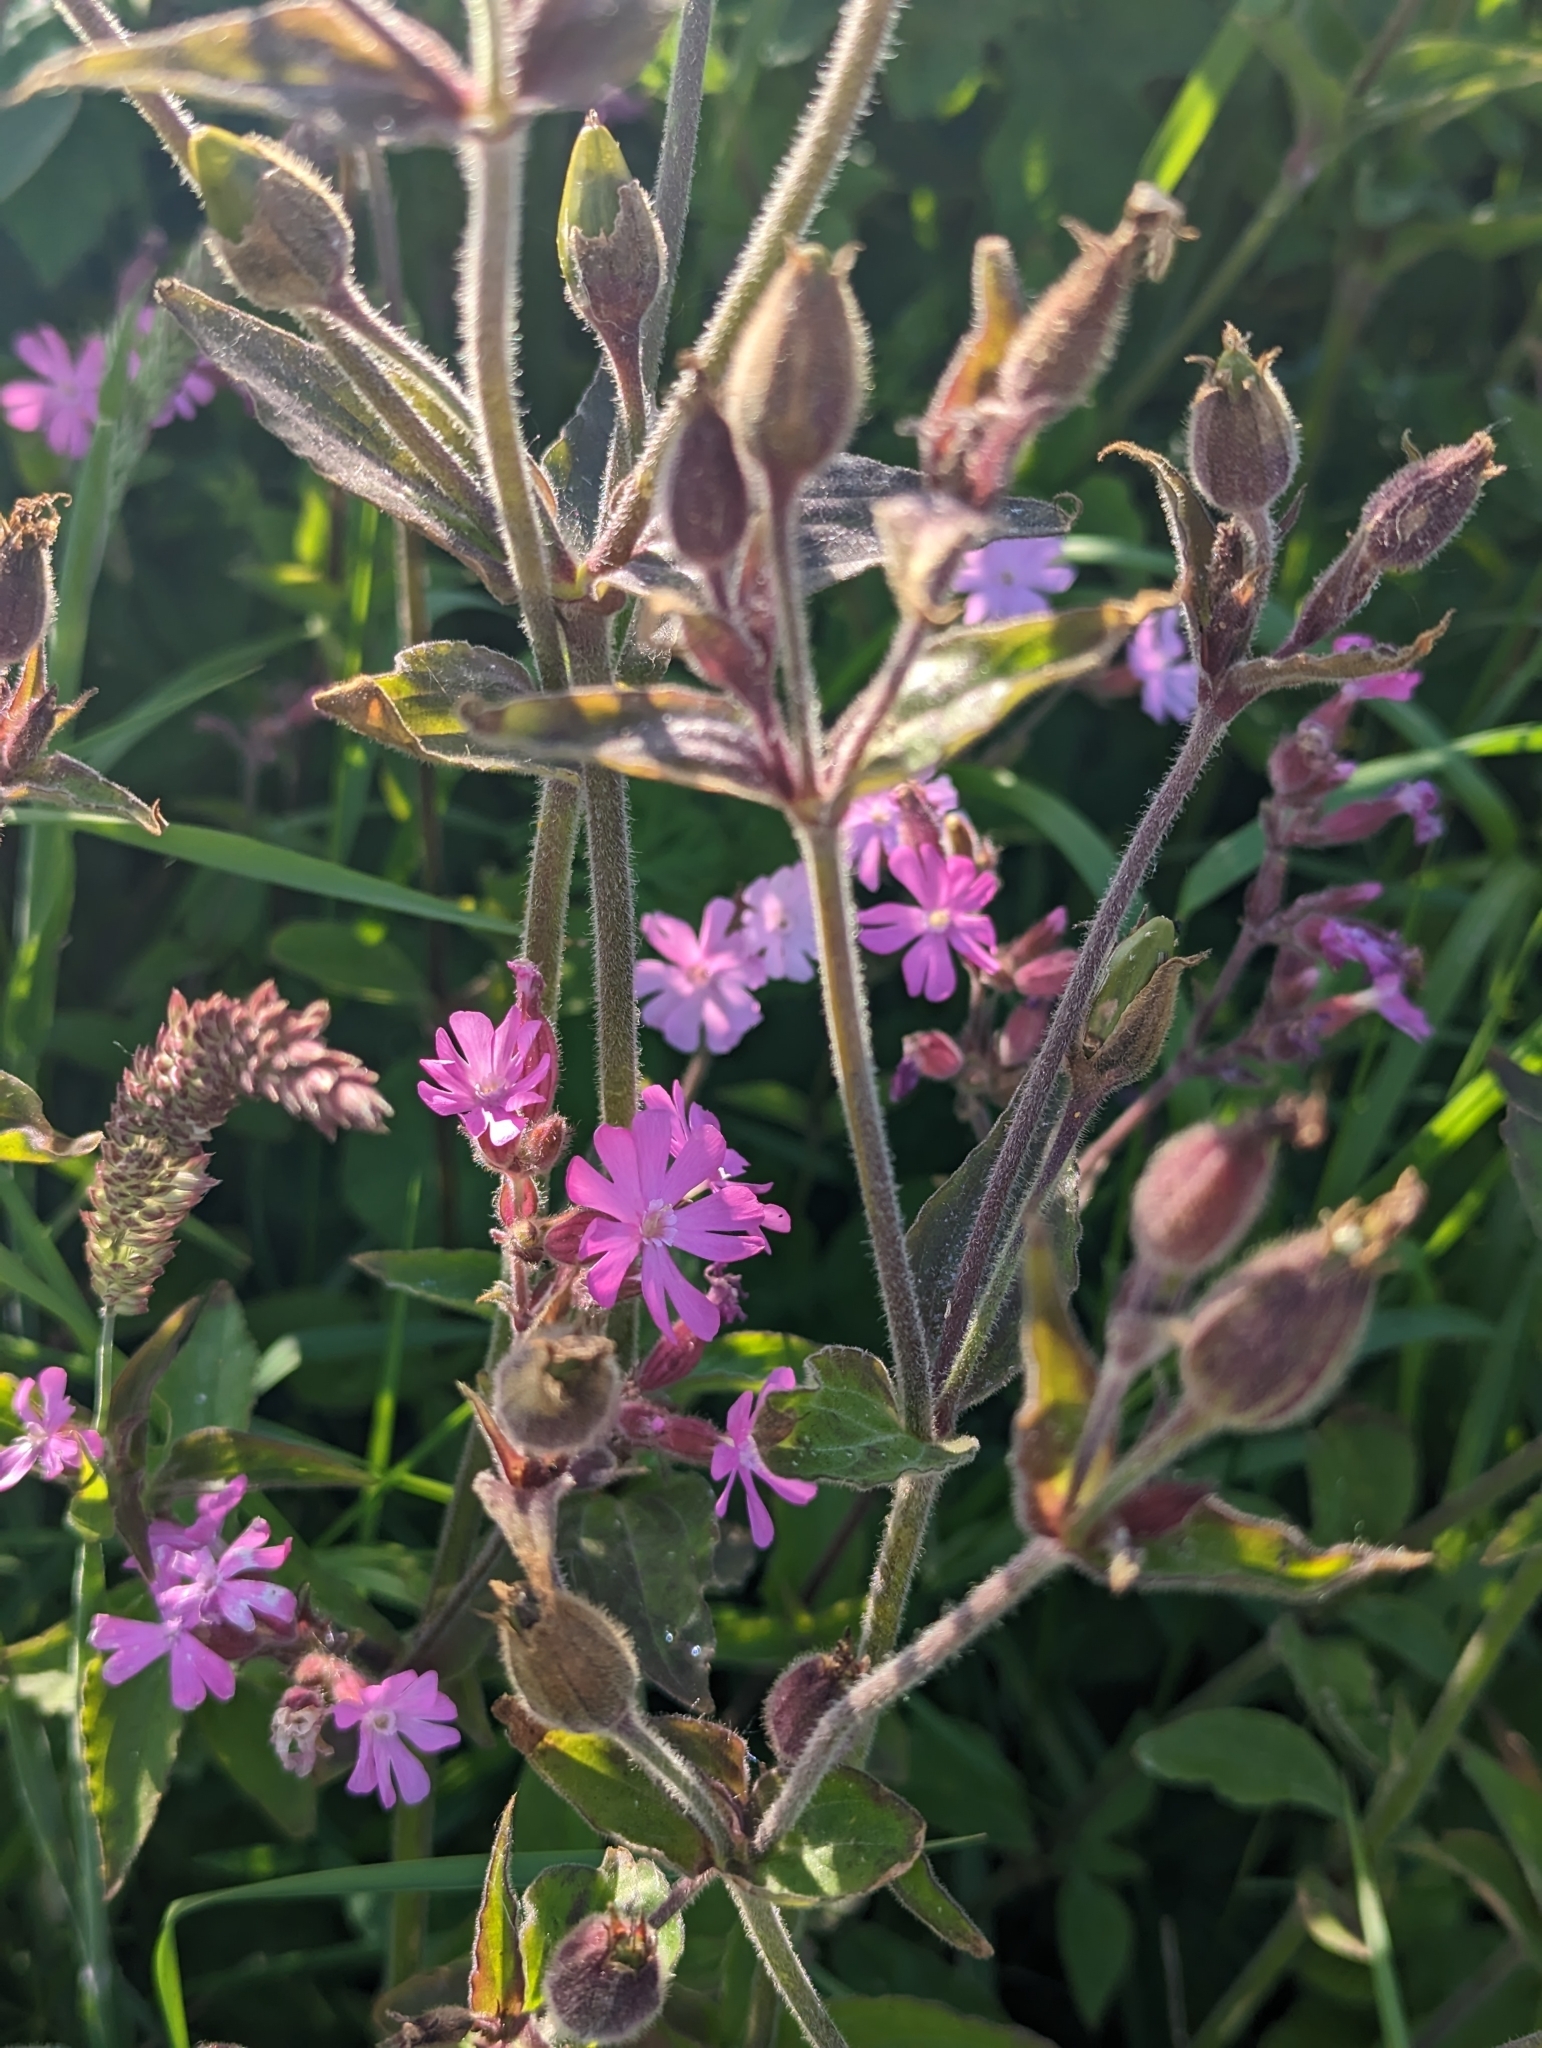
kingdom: Plantae
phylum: Tracheophyta
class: Magnoliopsida
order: Caryophyllales
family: Caryophyllaceae
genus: Silene
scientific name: Silene dioica
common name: Red campion
